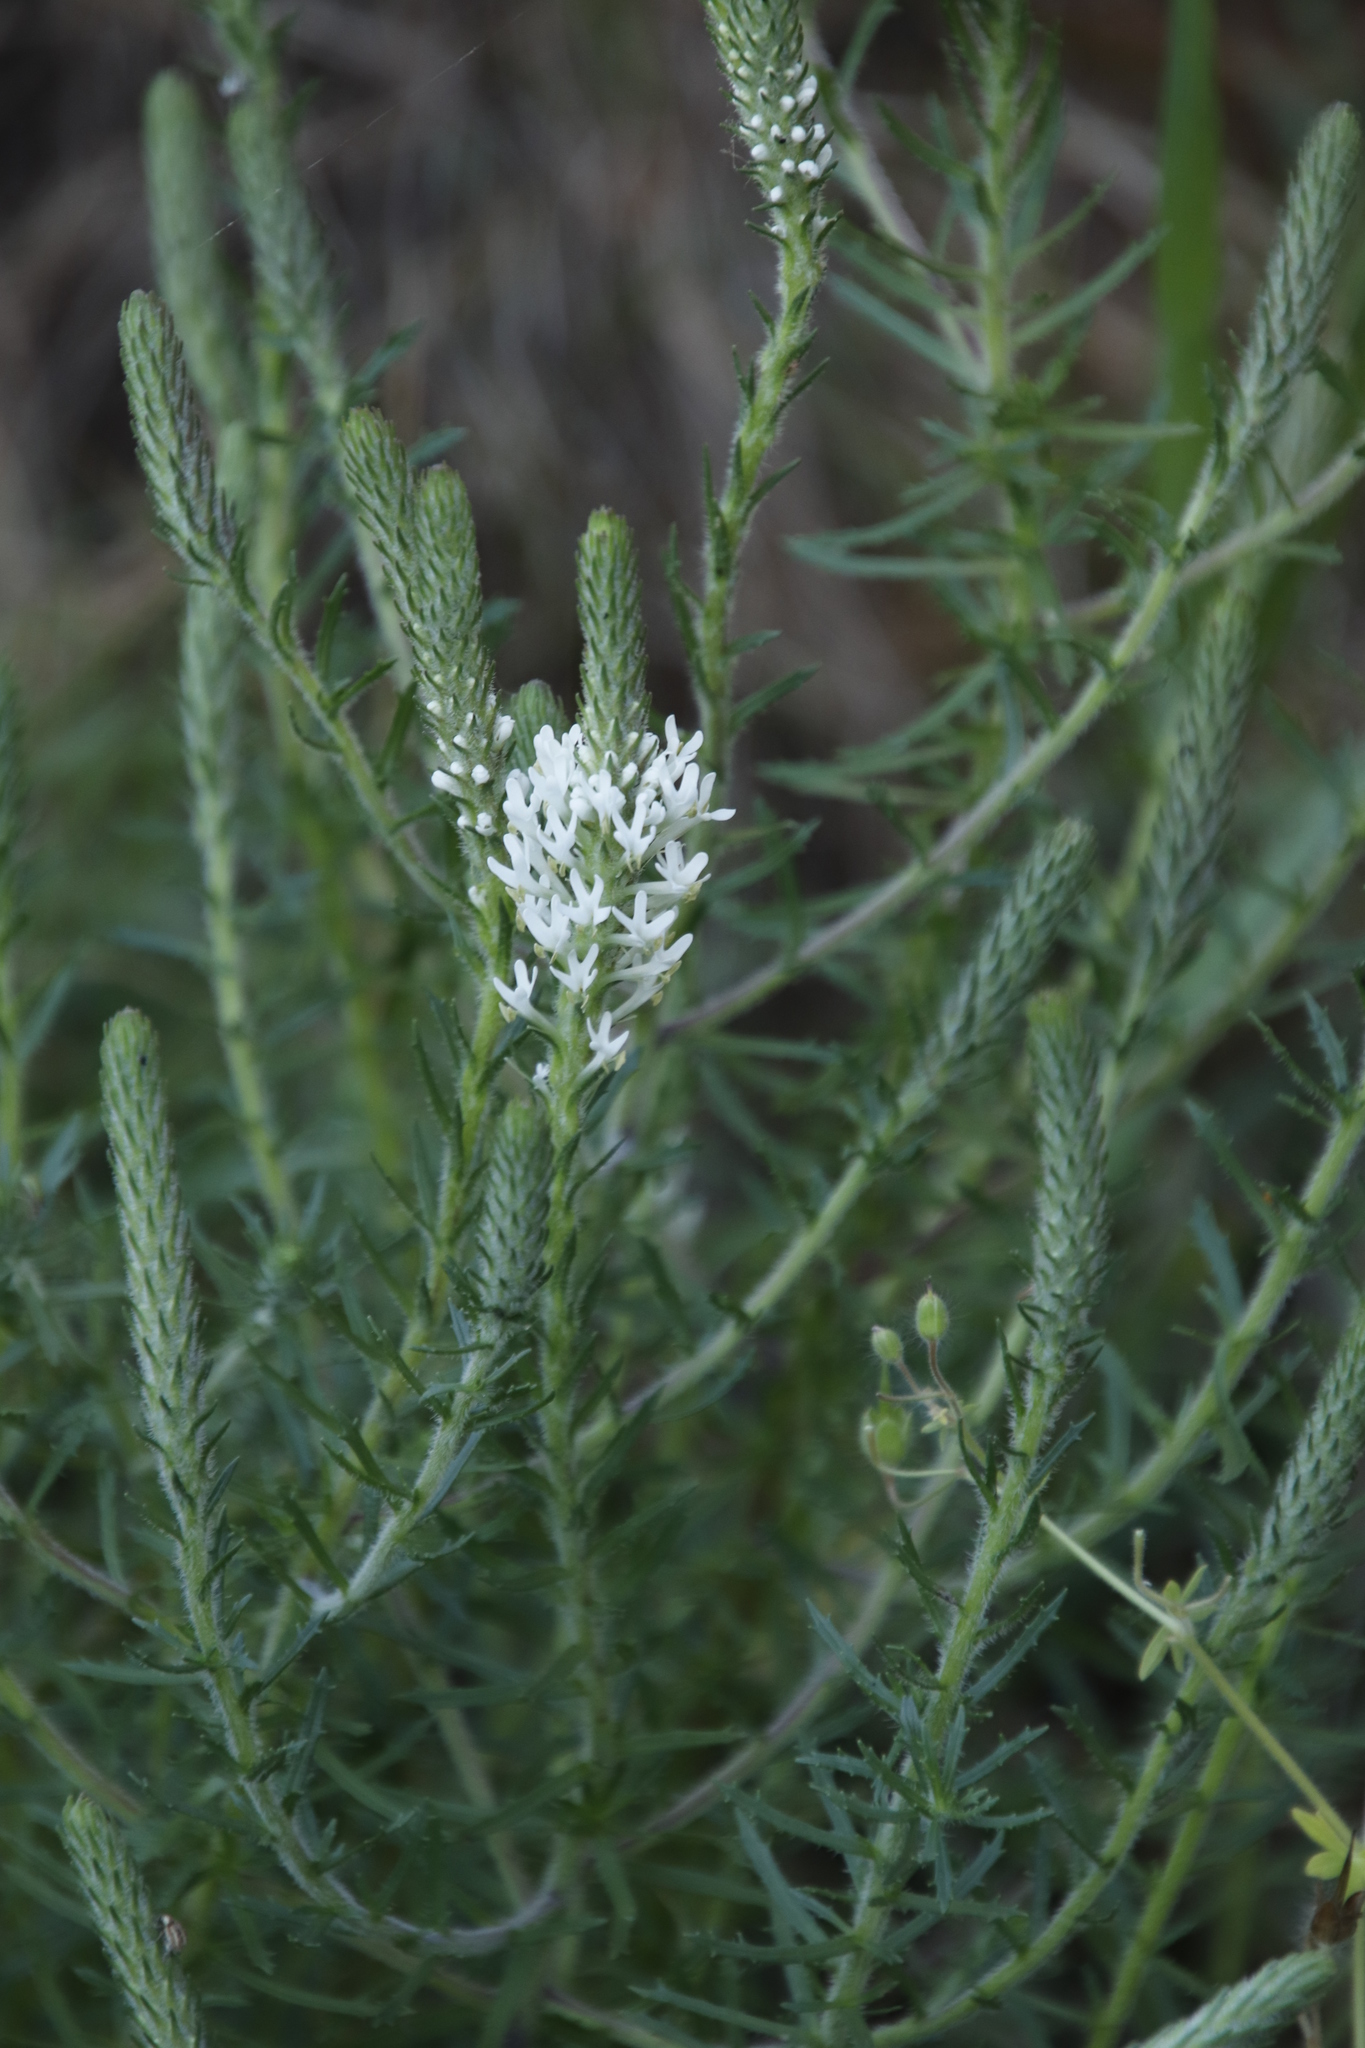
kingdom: Plantae
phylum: Tracheophyta
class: Magnoliopsida
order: Lamiales
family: Scrophulariaceae
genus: Dischisma
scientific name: Dischisma ciliatum
